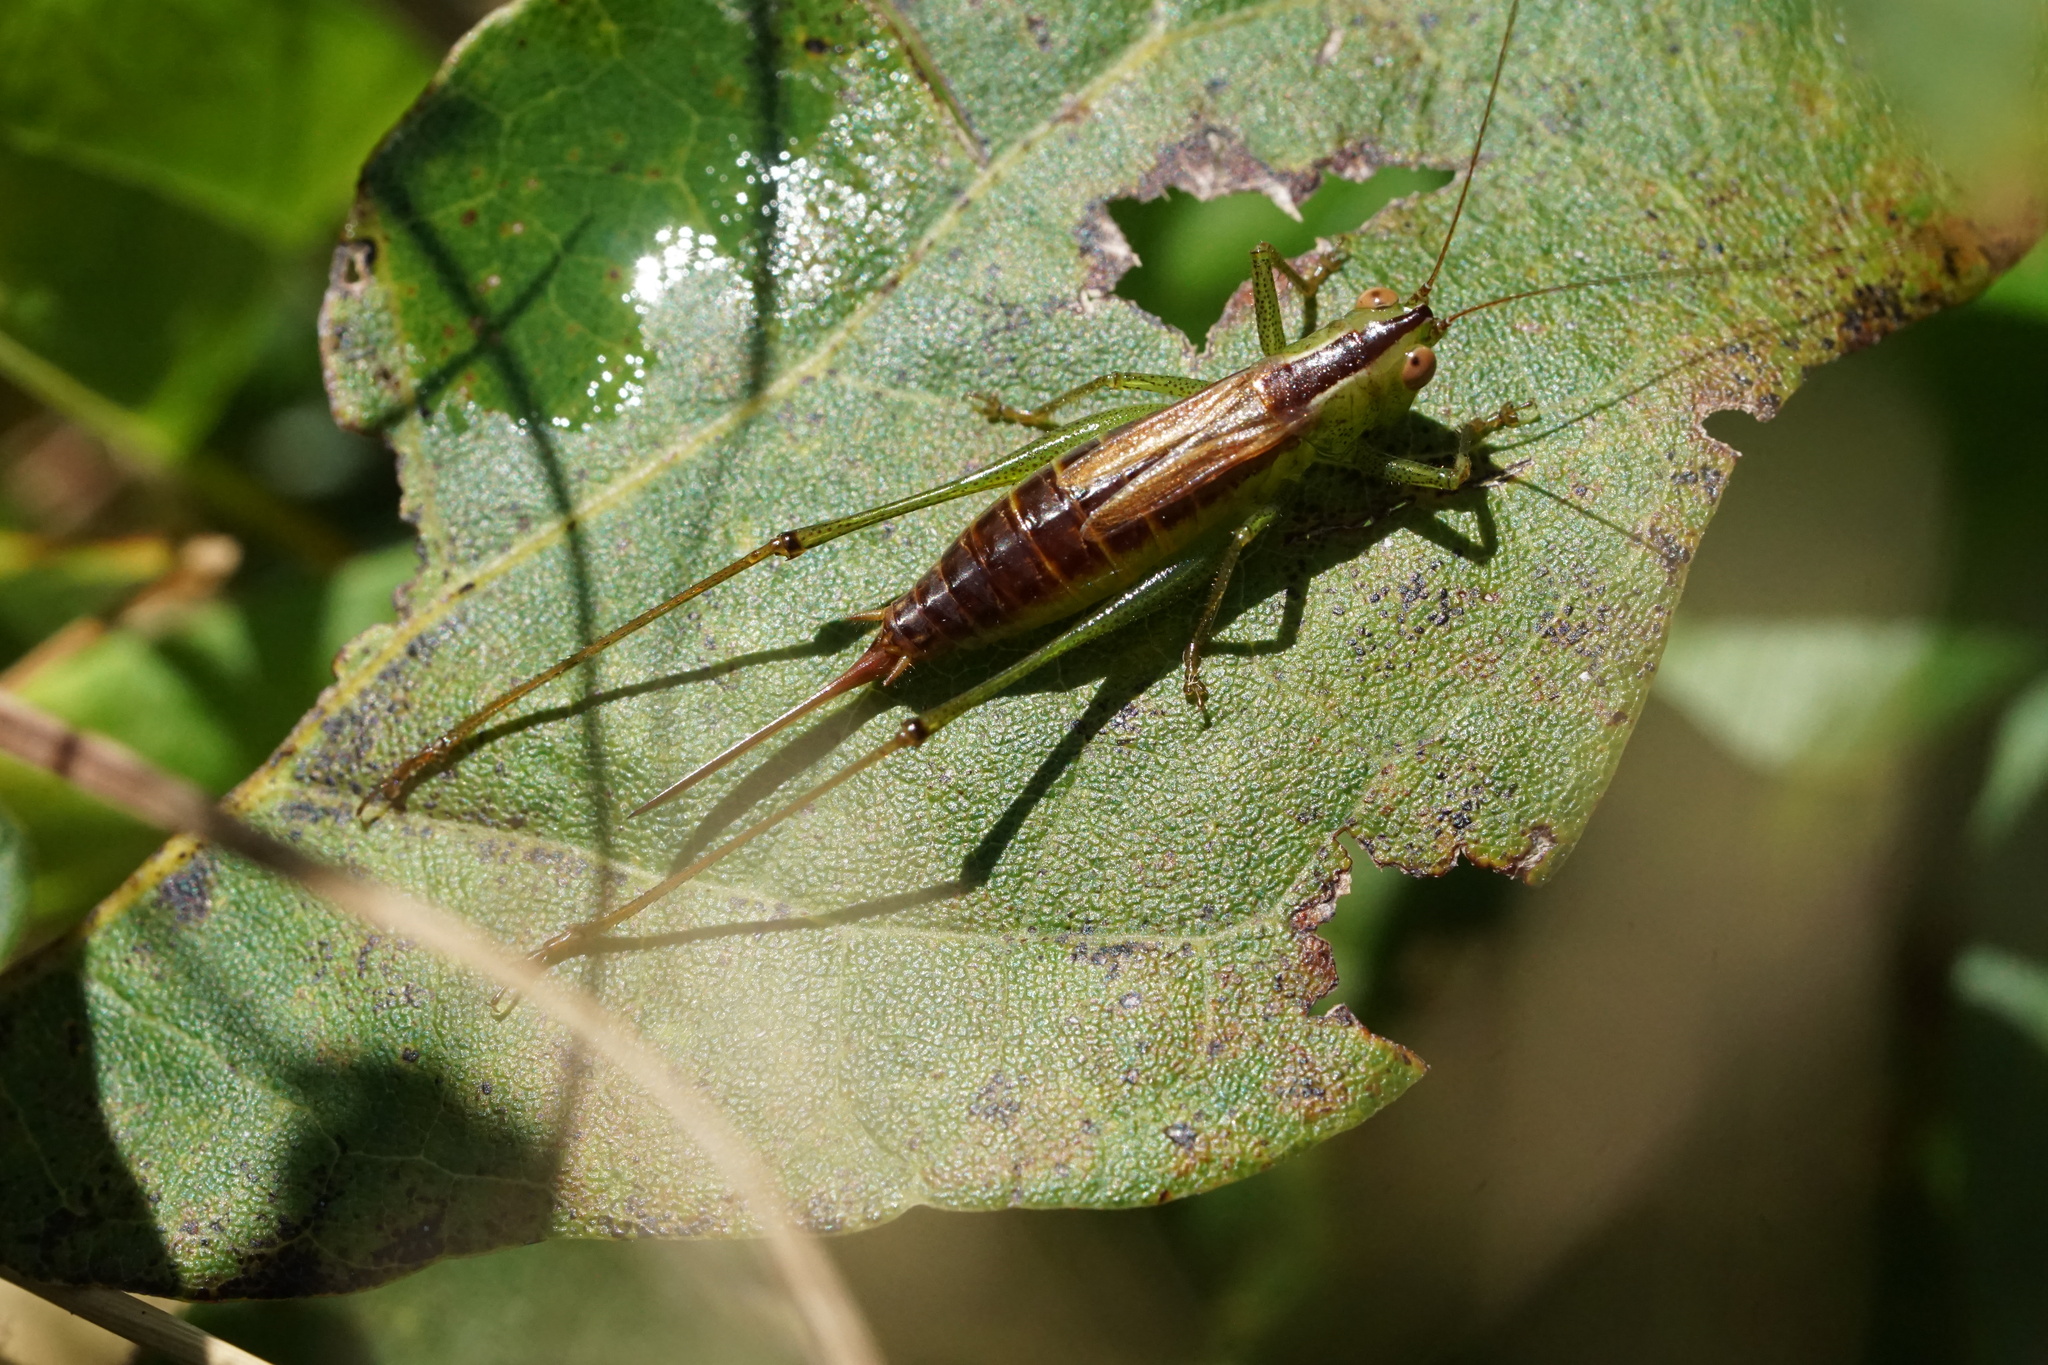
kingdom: Animalia
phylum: Arthropoda
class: Insecta
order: Orthoptera
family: Tettigoniidae
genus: Conocephalus
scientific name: Conocephalus brevipennis
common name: Short-winged meadow katydid
